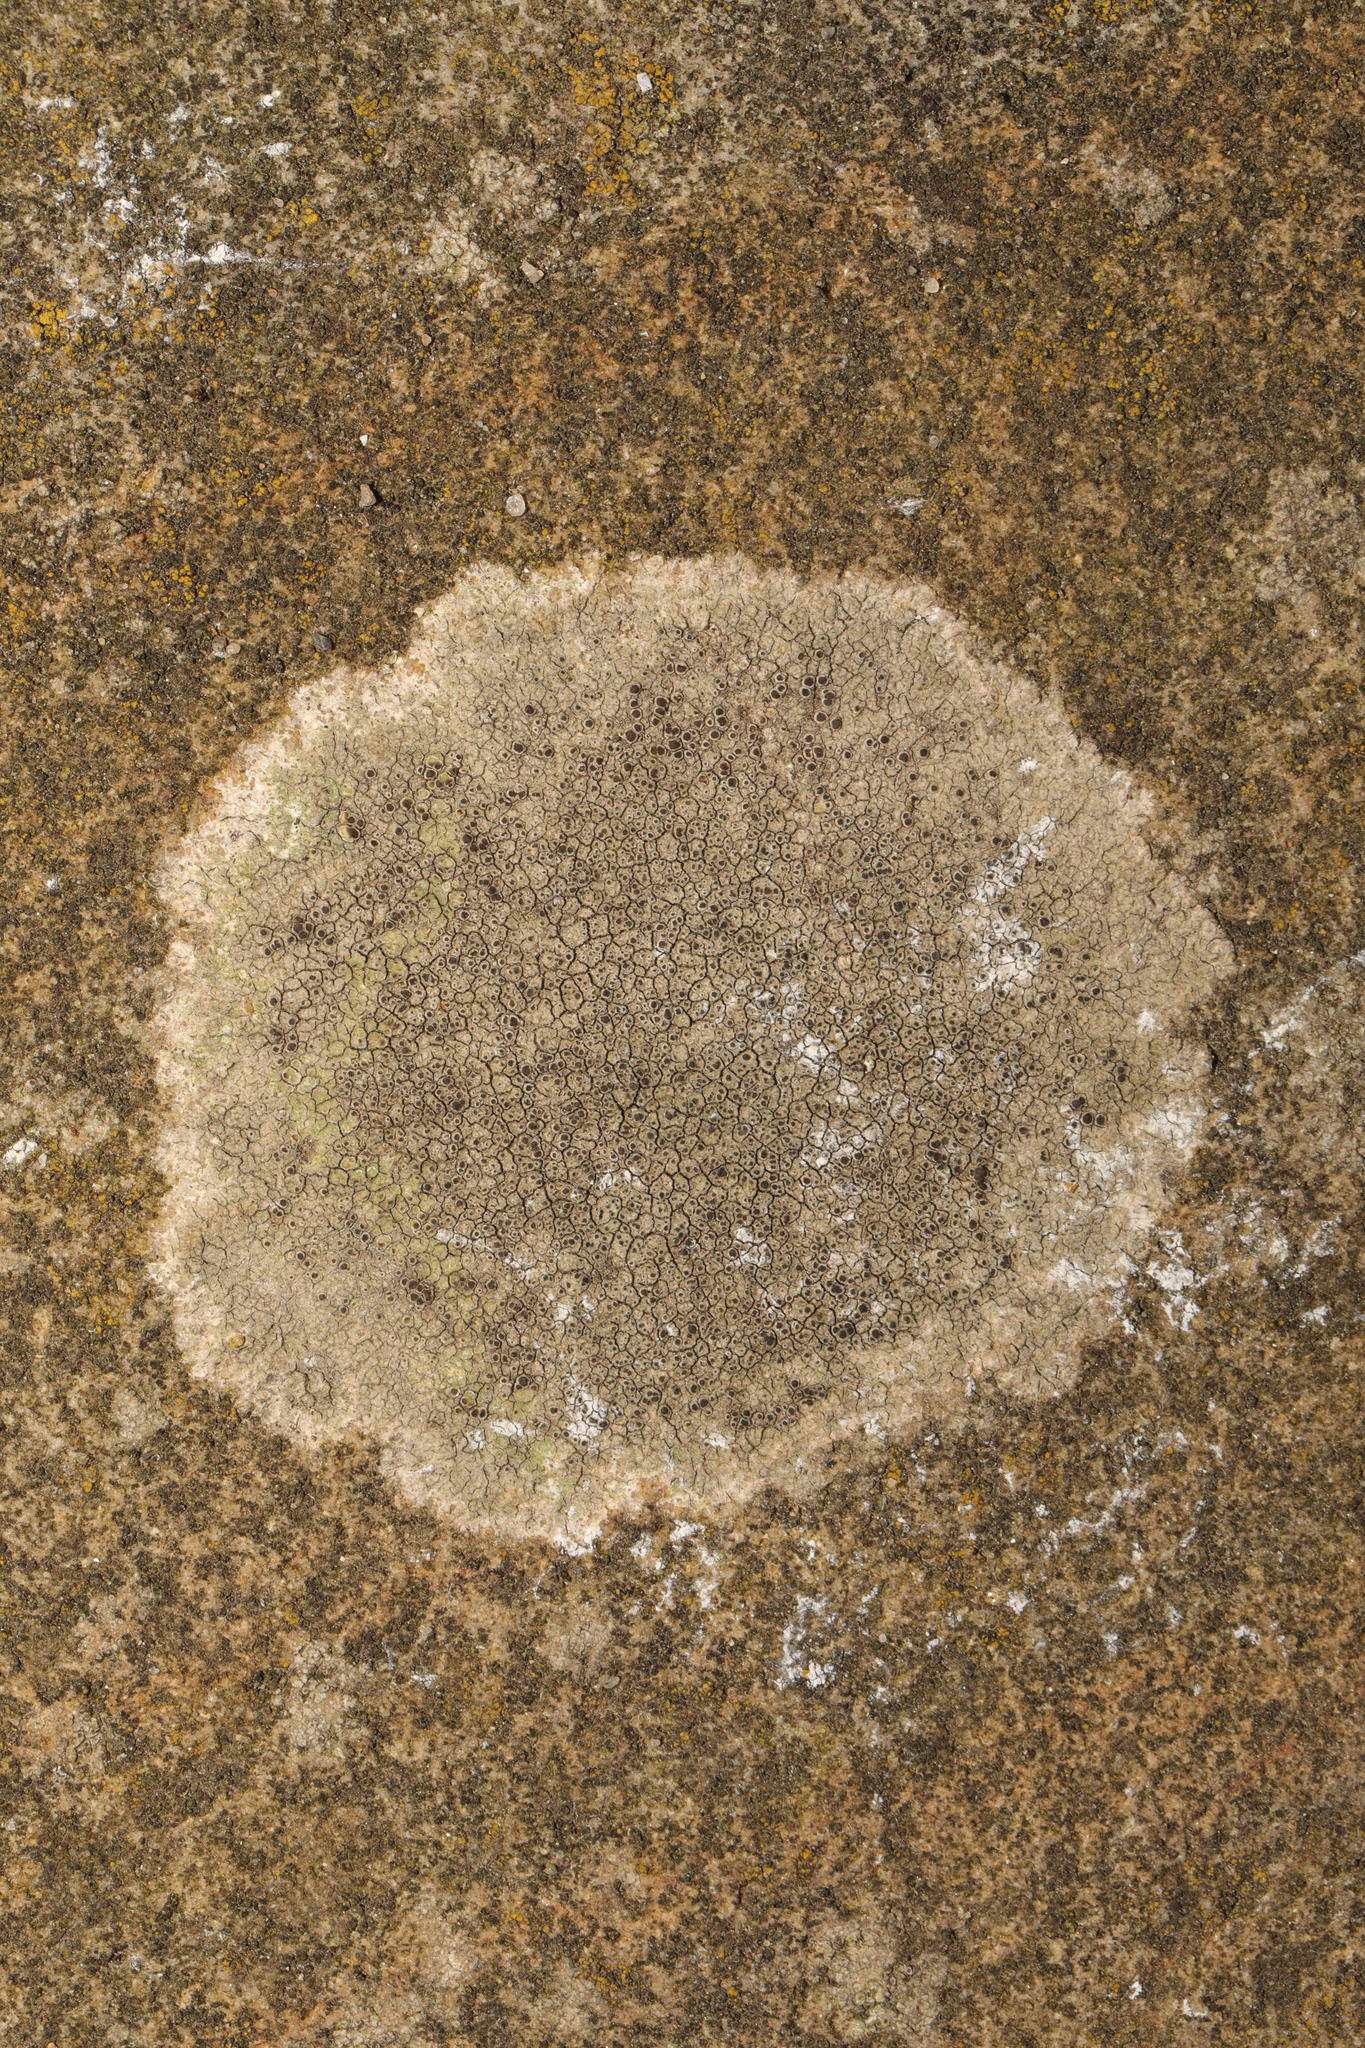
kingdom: Fungi
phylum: Ascomycota
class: Lecanoromycetes
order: Lecanorales
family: Lecanoraceae
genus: Lecanora
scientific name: Lecanora campestris
